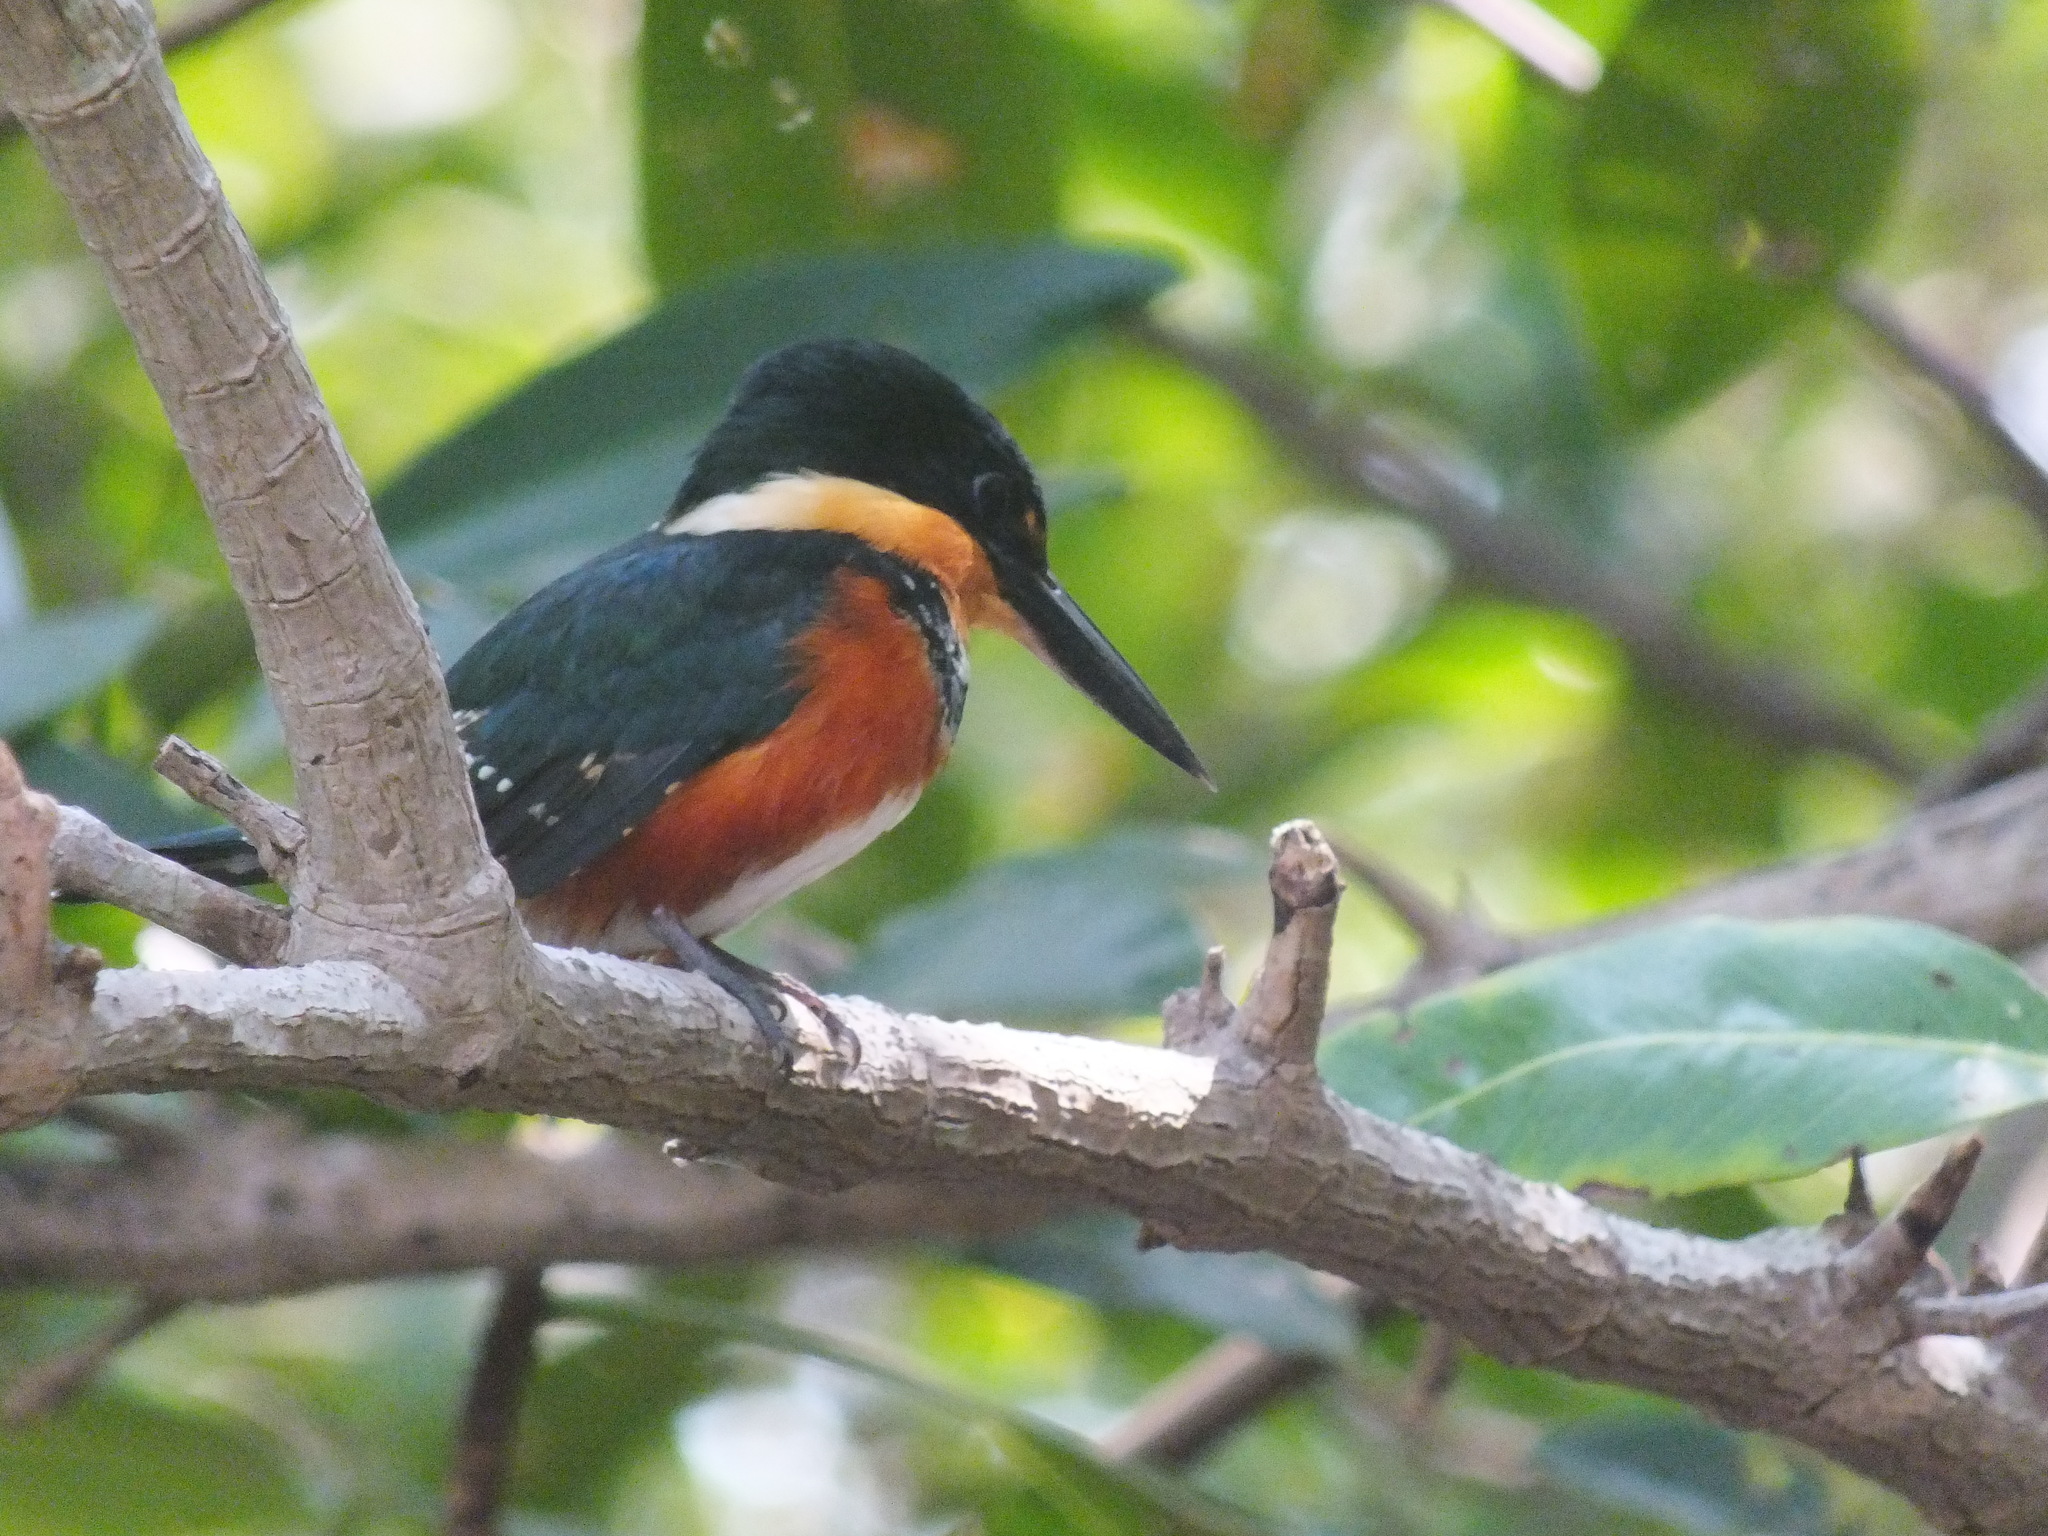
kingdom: Animalia
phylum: Chordata
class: Aves
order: Coraciiformes
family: Alcedinidae
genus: Chloroceryle
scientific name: Chloroceryle aenea
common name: American pygmy kingfisher
